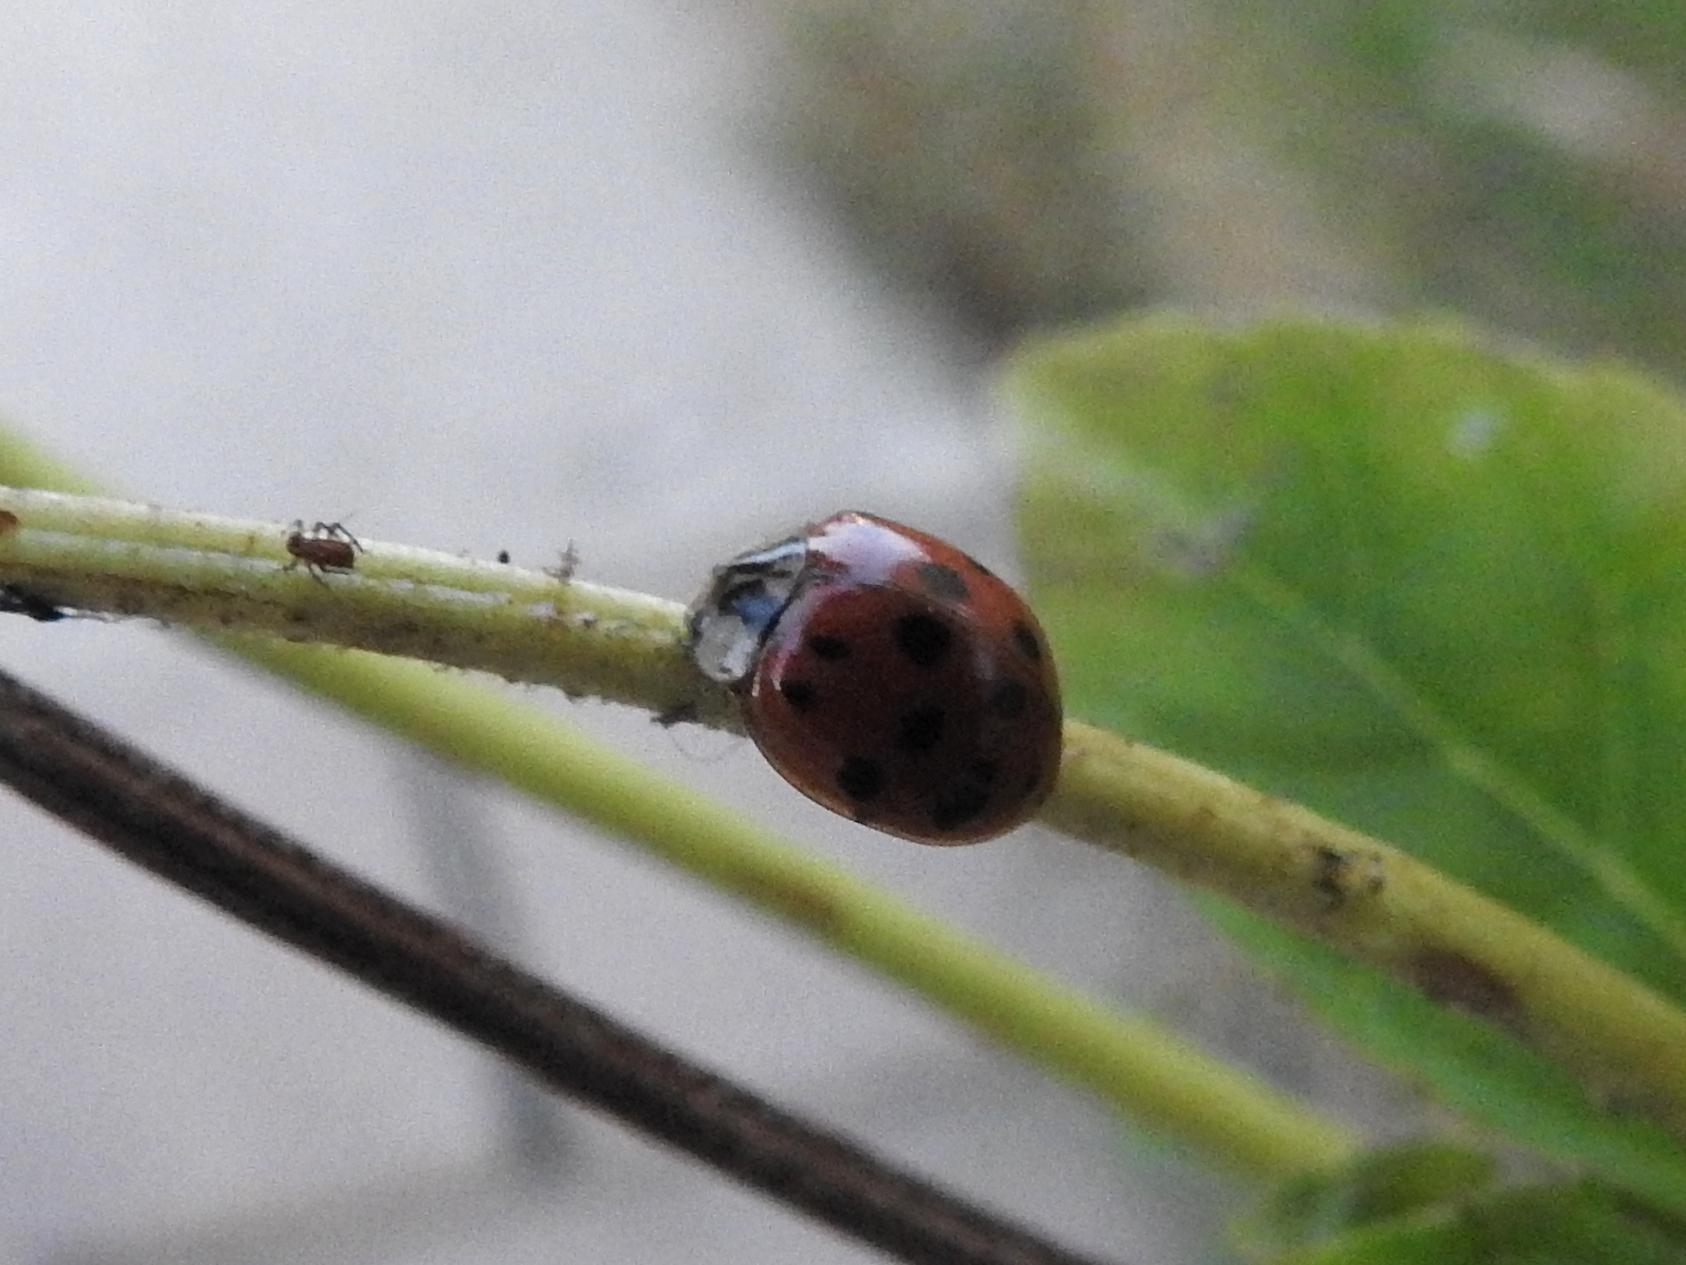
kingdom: Animalia
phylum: Arthropoda
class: Insecta
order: Coleoptera
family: Coccinellidae
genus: Harmonia
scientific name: Harmonia axyridis
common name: Harlequin ladybird
